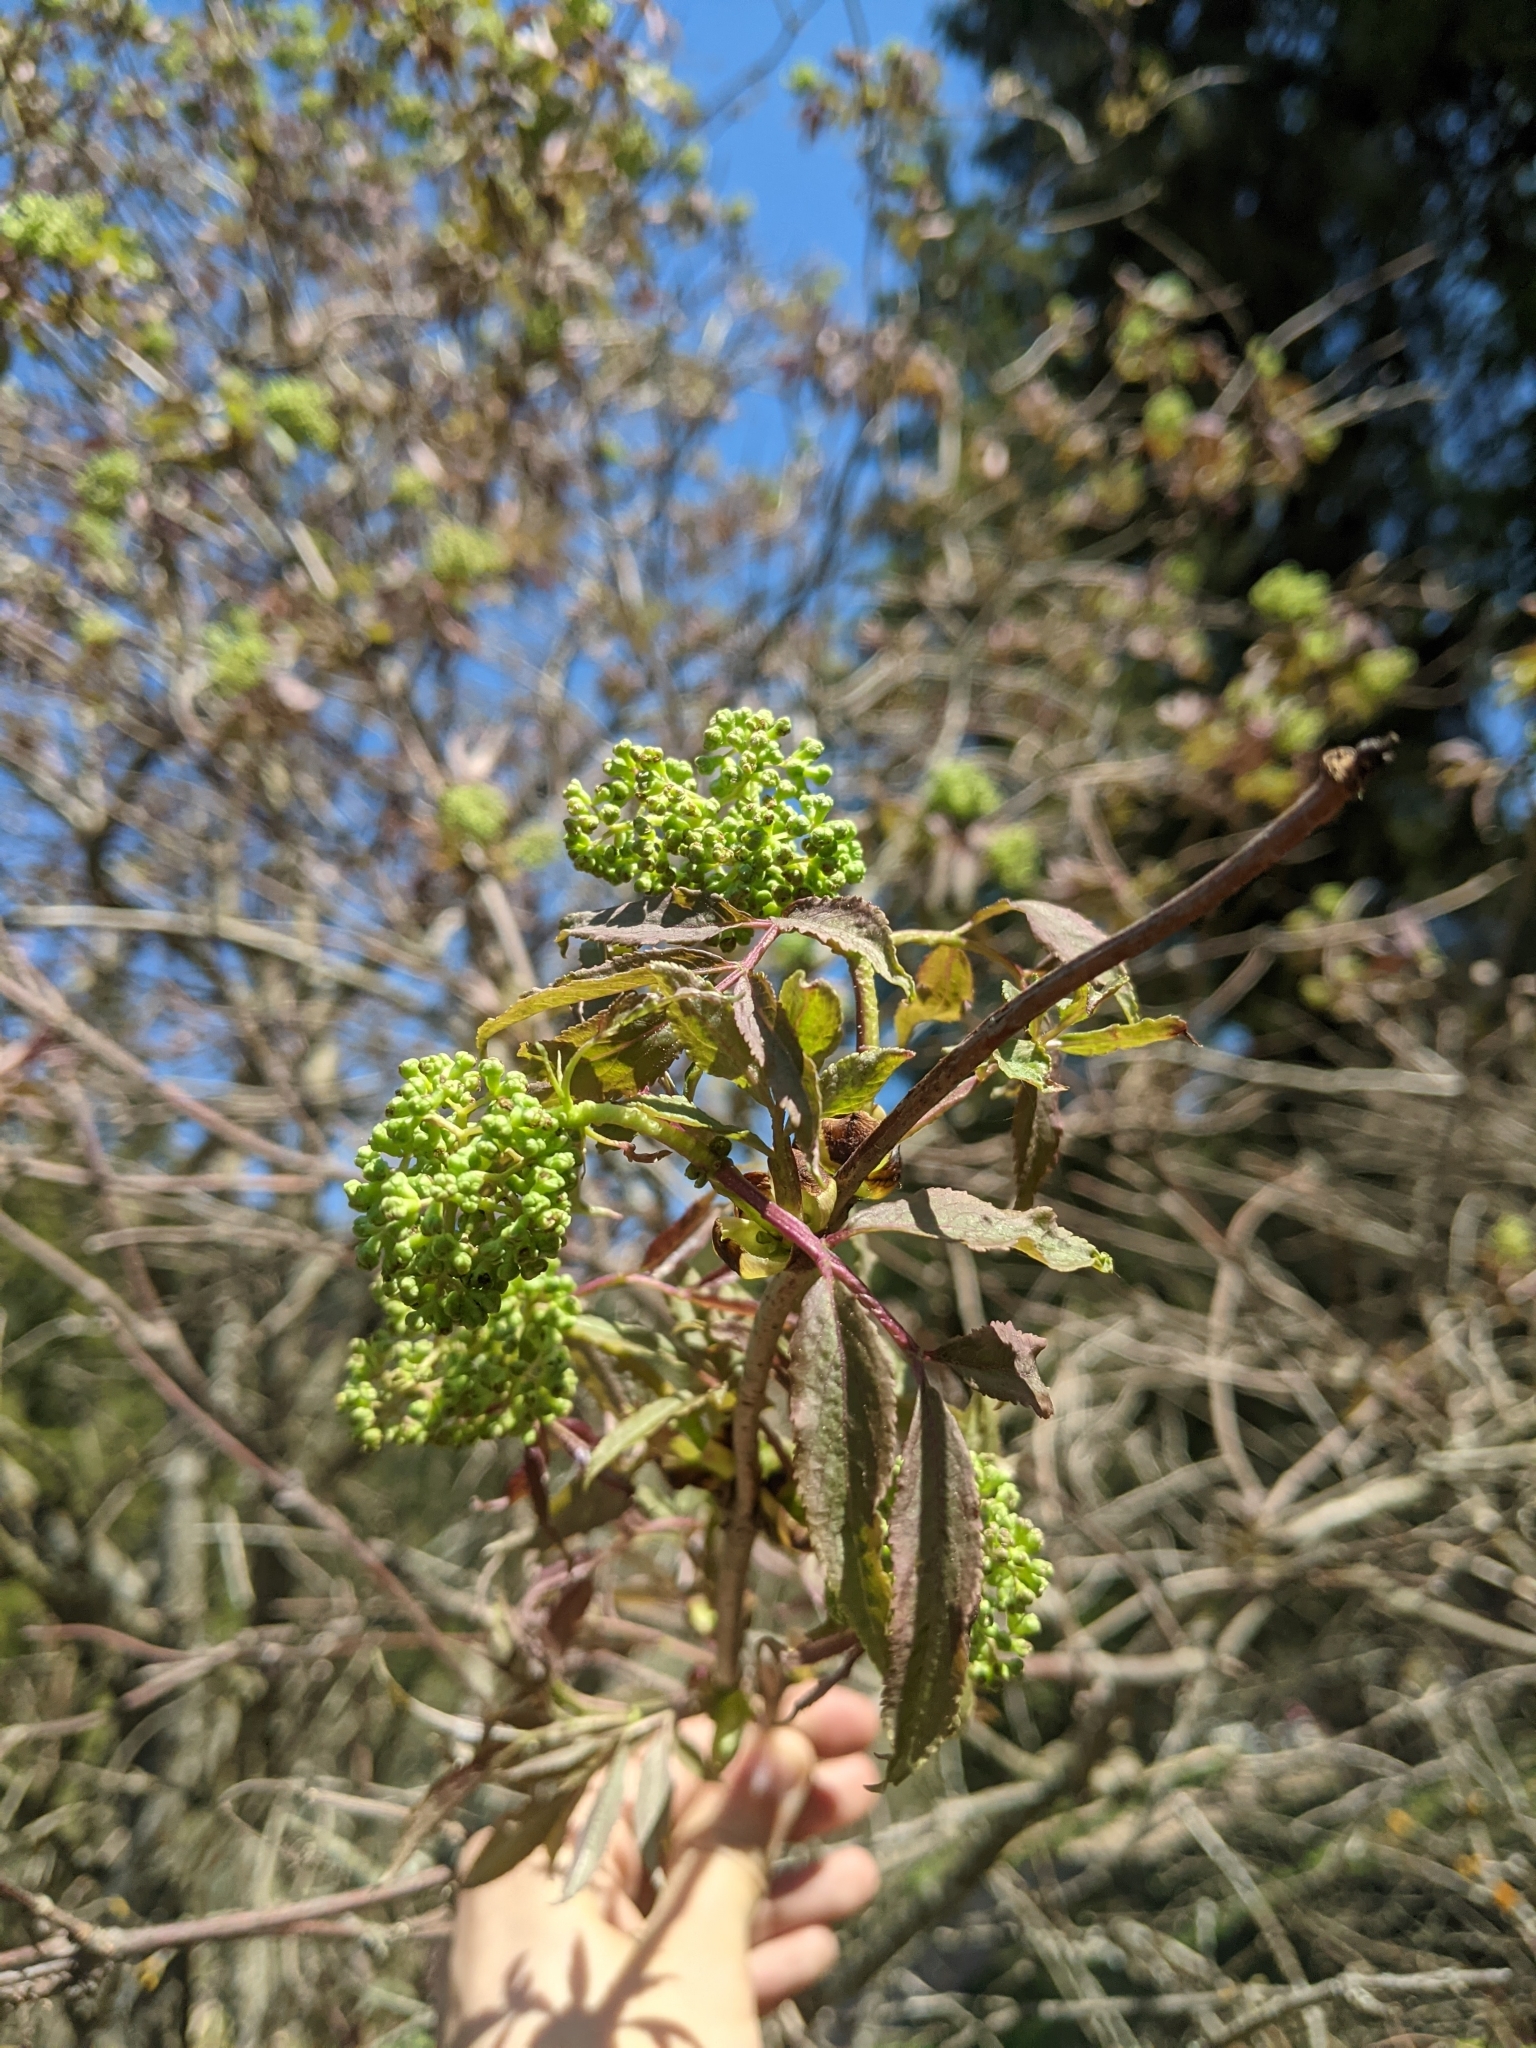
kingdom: Plantae
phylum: Tracheophyta
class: Magnoliopsida
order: Dipsacales
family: Viburnaceae
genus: Sambucus
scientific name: Sambucus racemosa
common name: Red-berried elder
